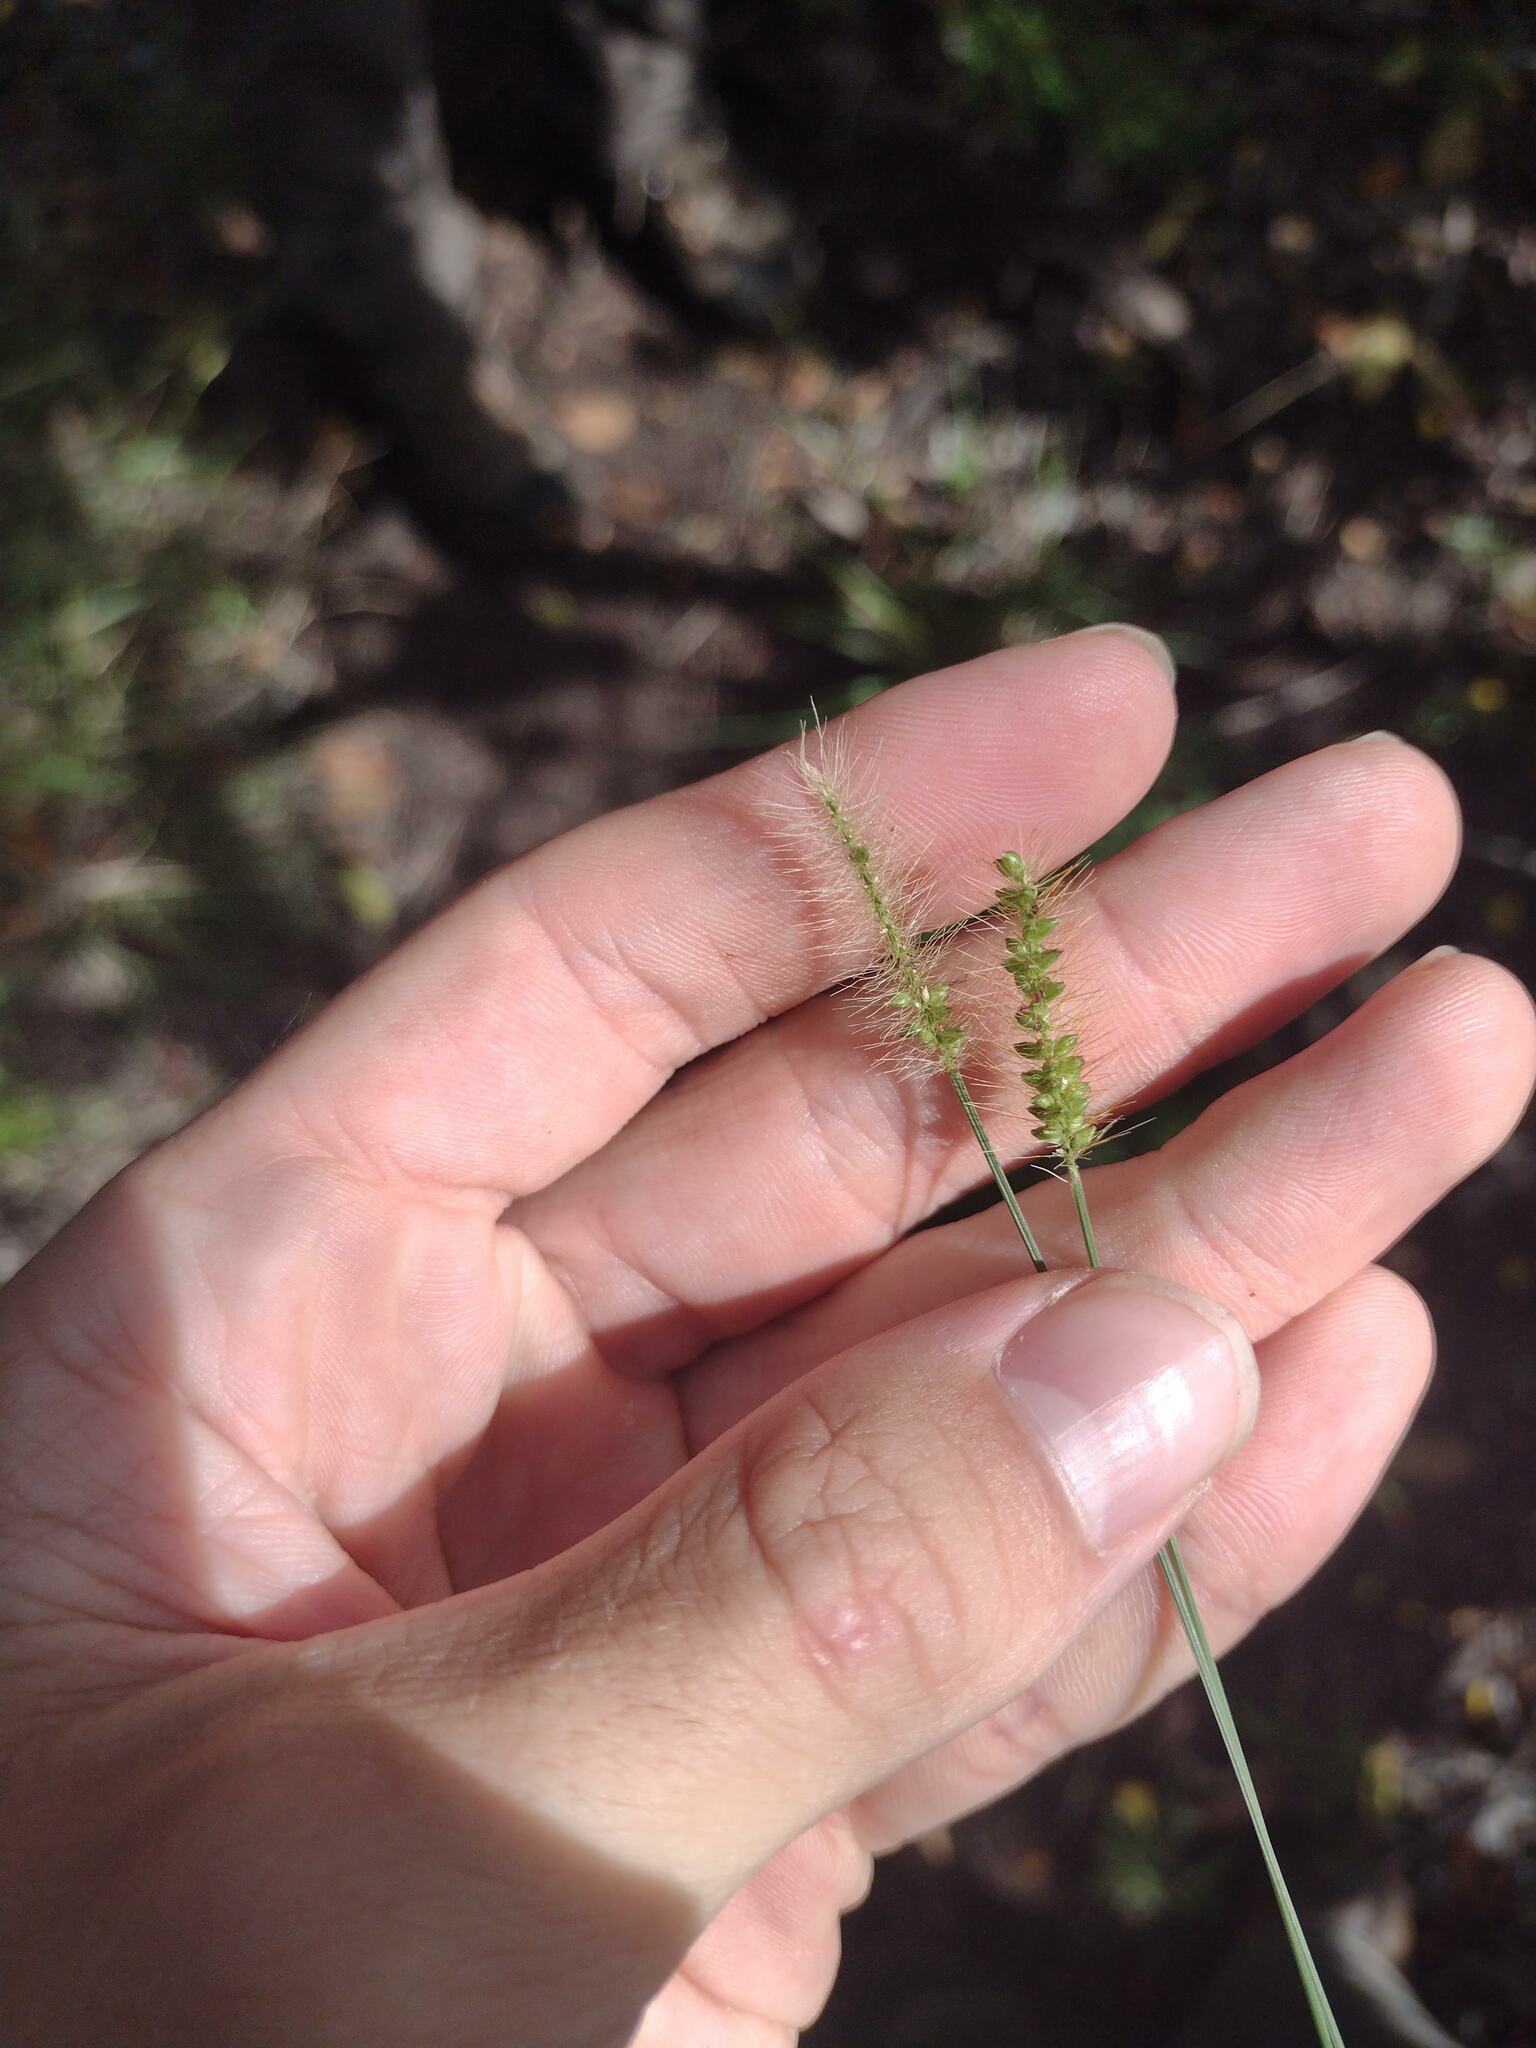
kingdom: Plantae
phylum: Tracheophyta
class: Liliopsida
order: Poales
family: Poaceae
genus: Setaria
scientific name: Setaria parviflora
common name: Knotroot bristle-grass
